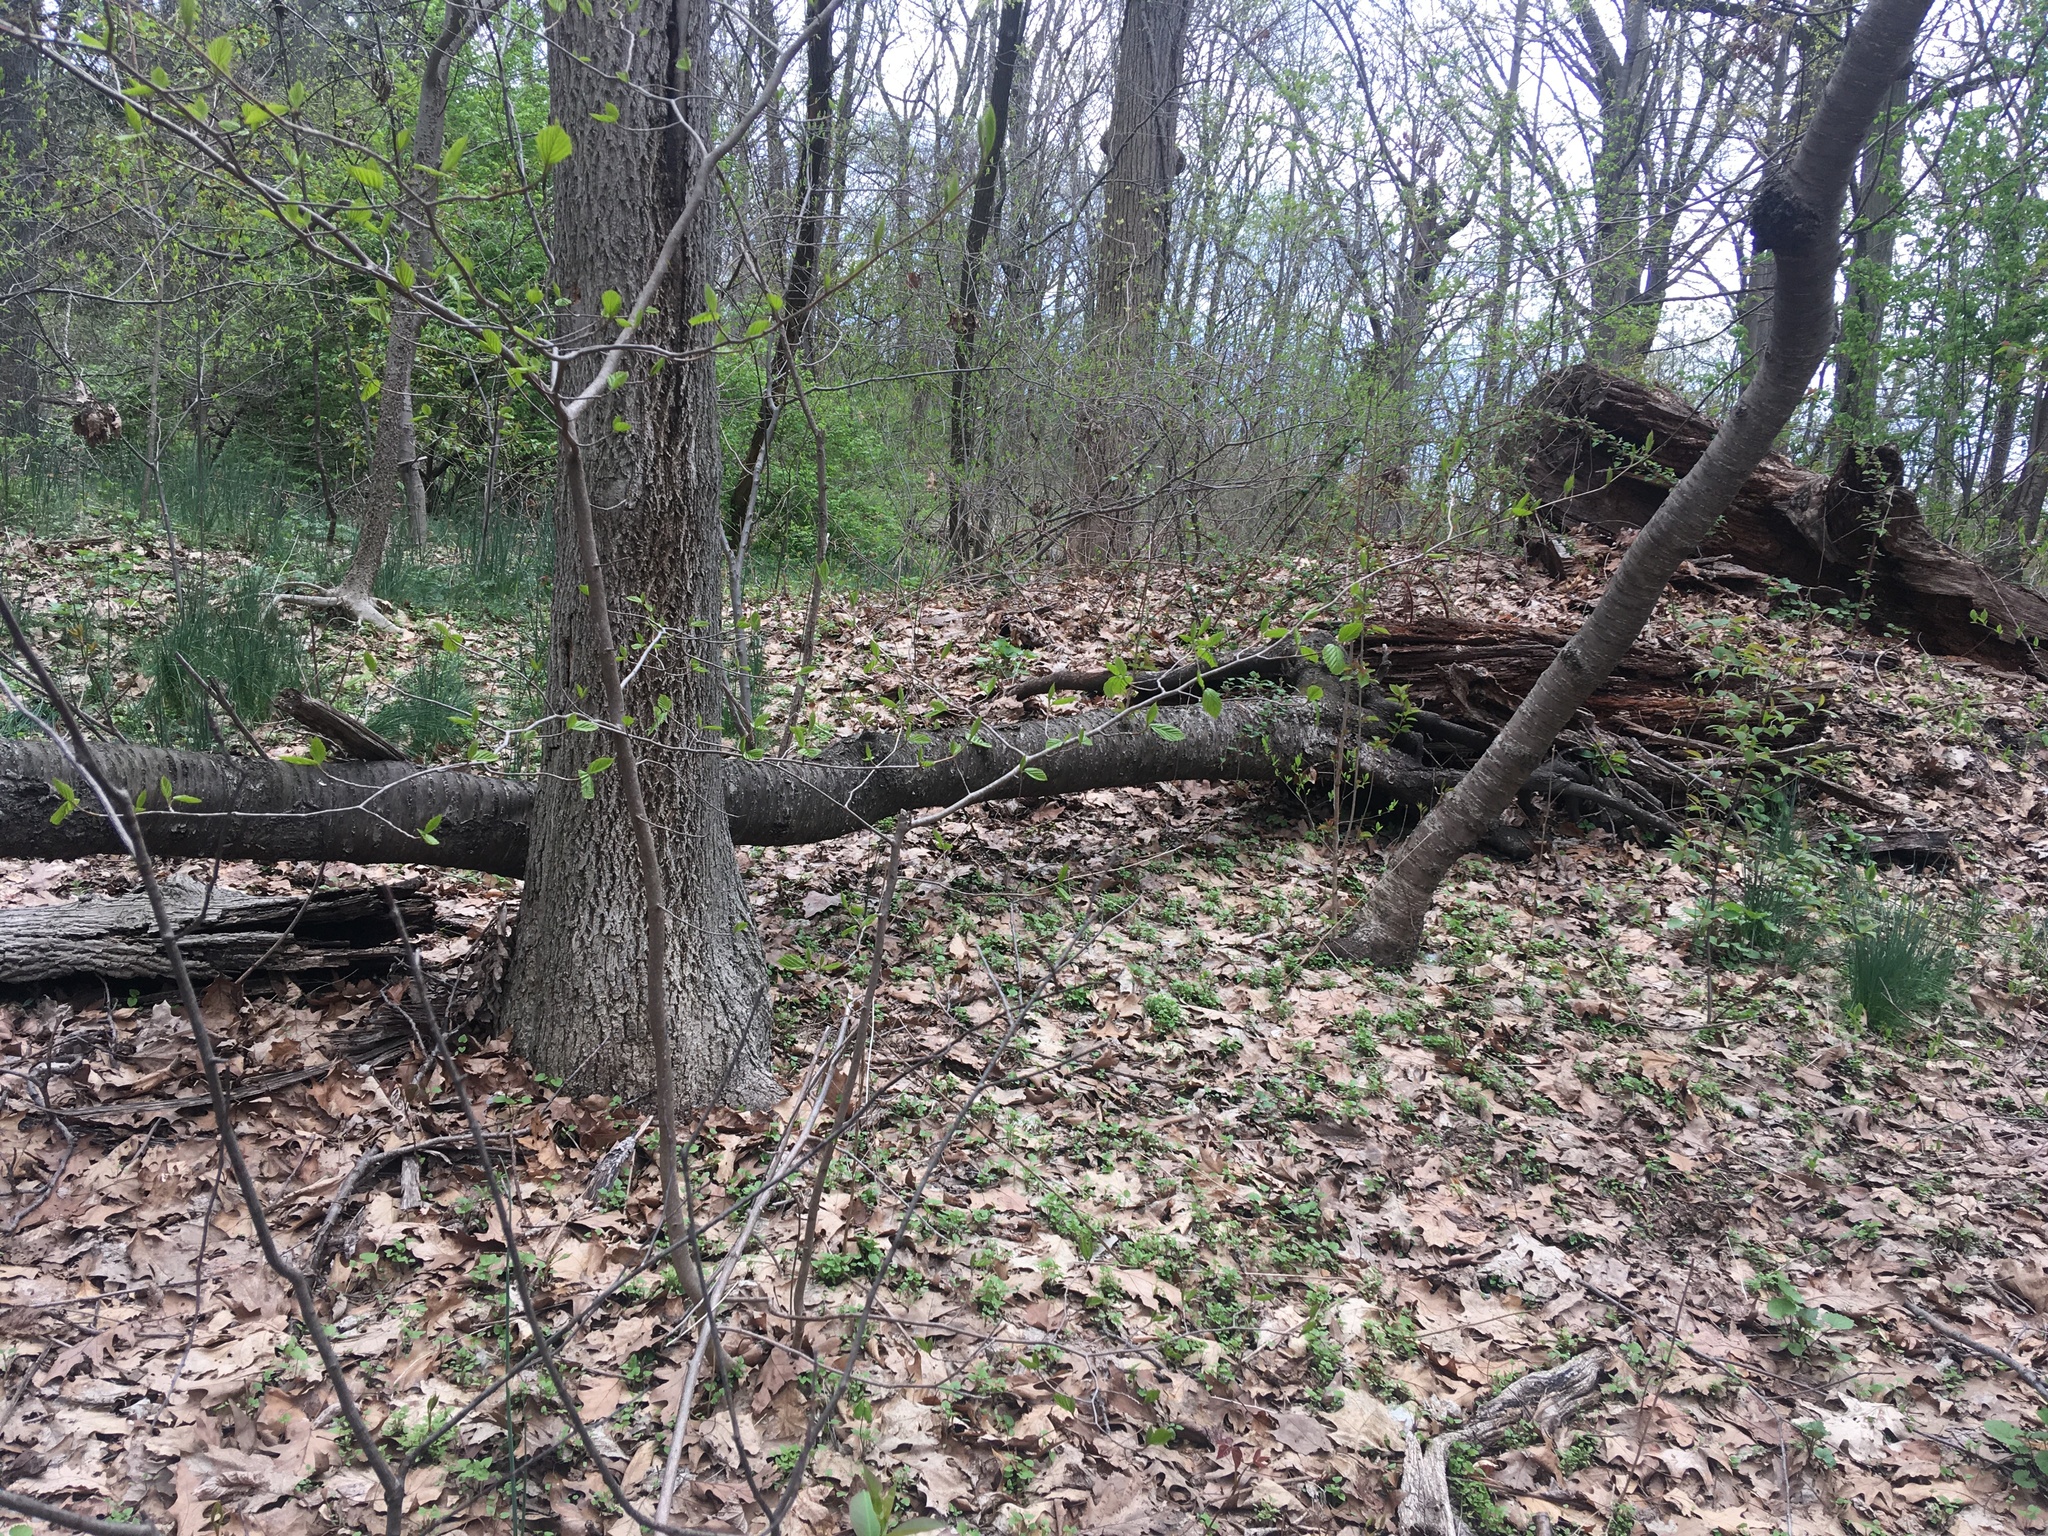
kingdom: Plantae
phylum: Tracheophyta
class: Magnoliopsida
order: Rosales
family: Rosaceae
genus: Prunus
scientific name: Prunus avium
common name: Sweet cherry
